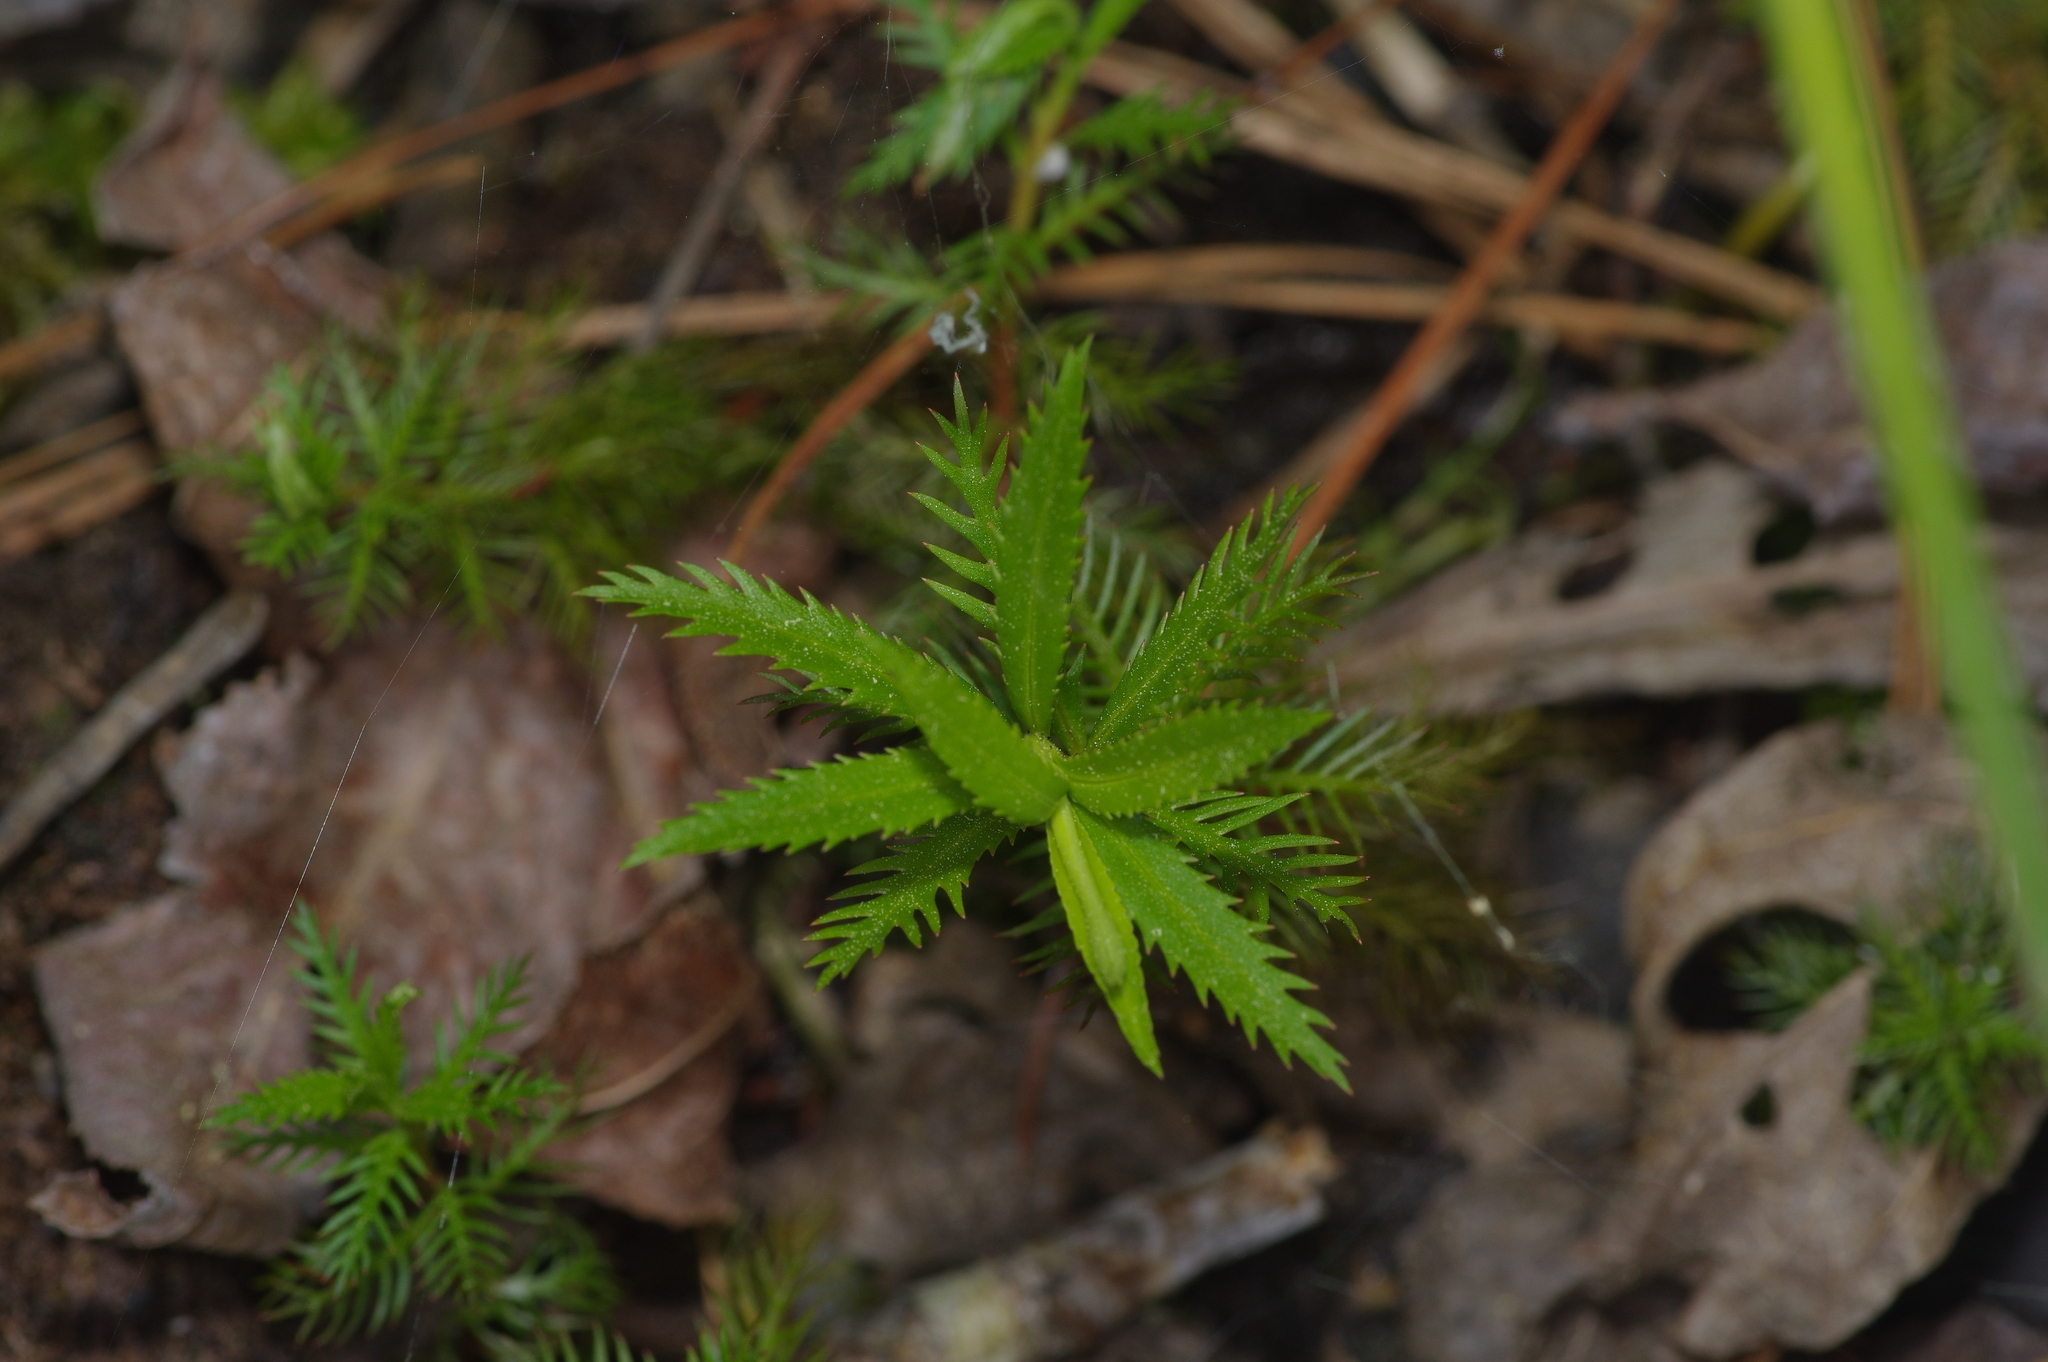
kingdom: Plantae
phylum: Tracheophyta
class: Magnoliopsida
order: Saxifragales
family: Haloragaceae
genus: Proserpinaca
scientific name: Proserpinaca palustris
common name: Marsh mermaidweed
